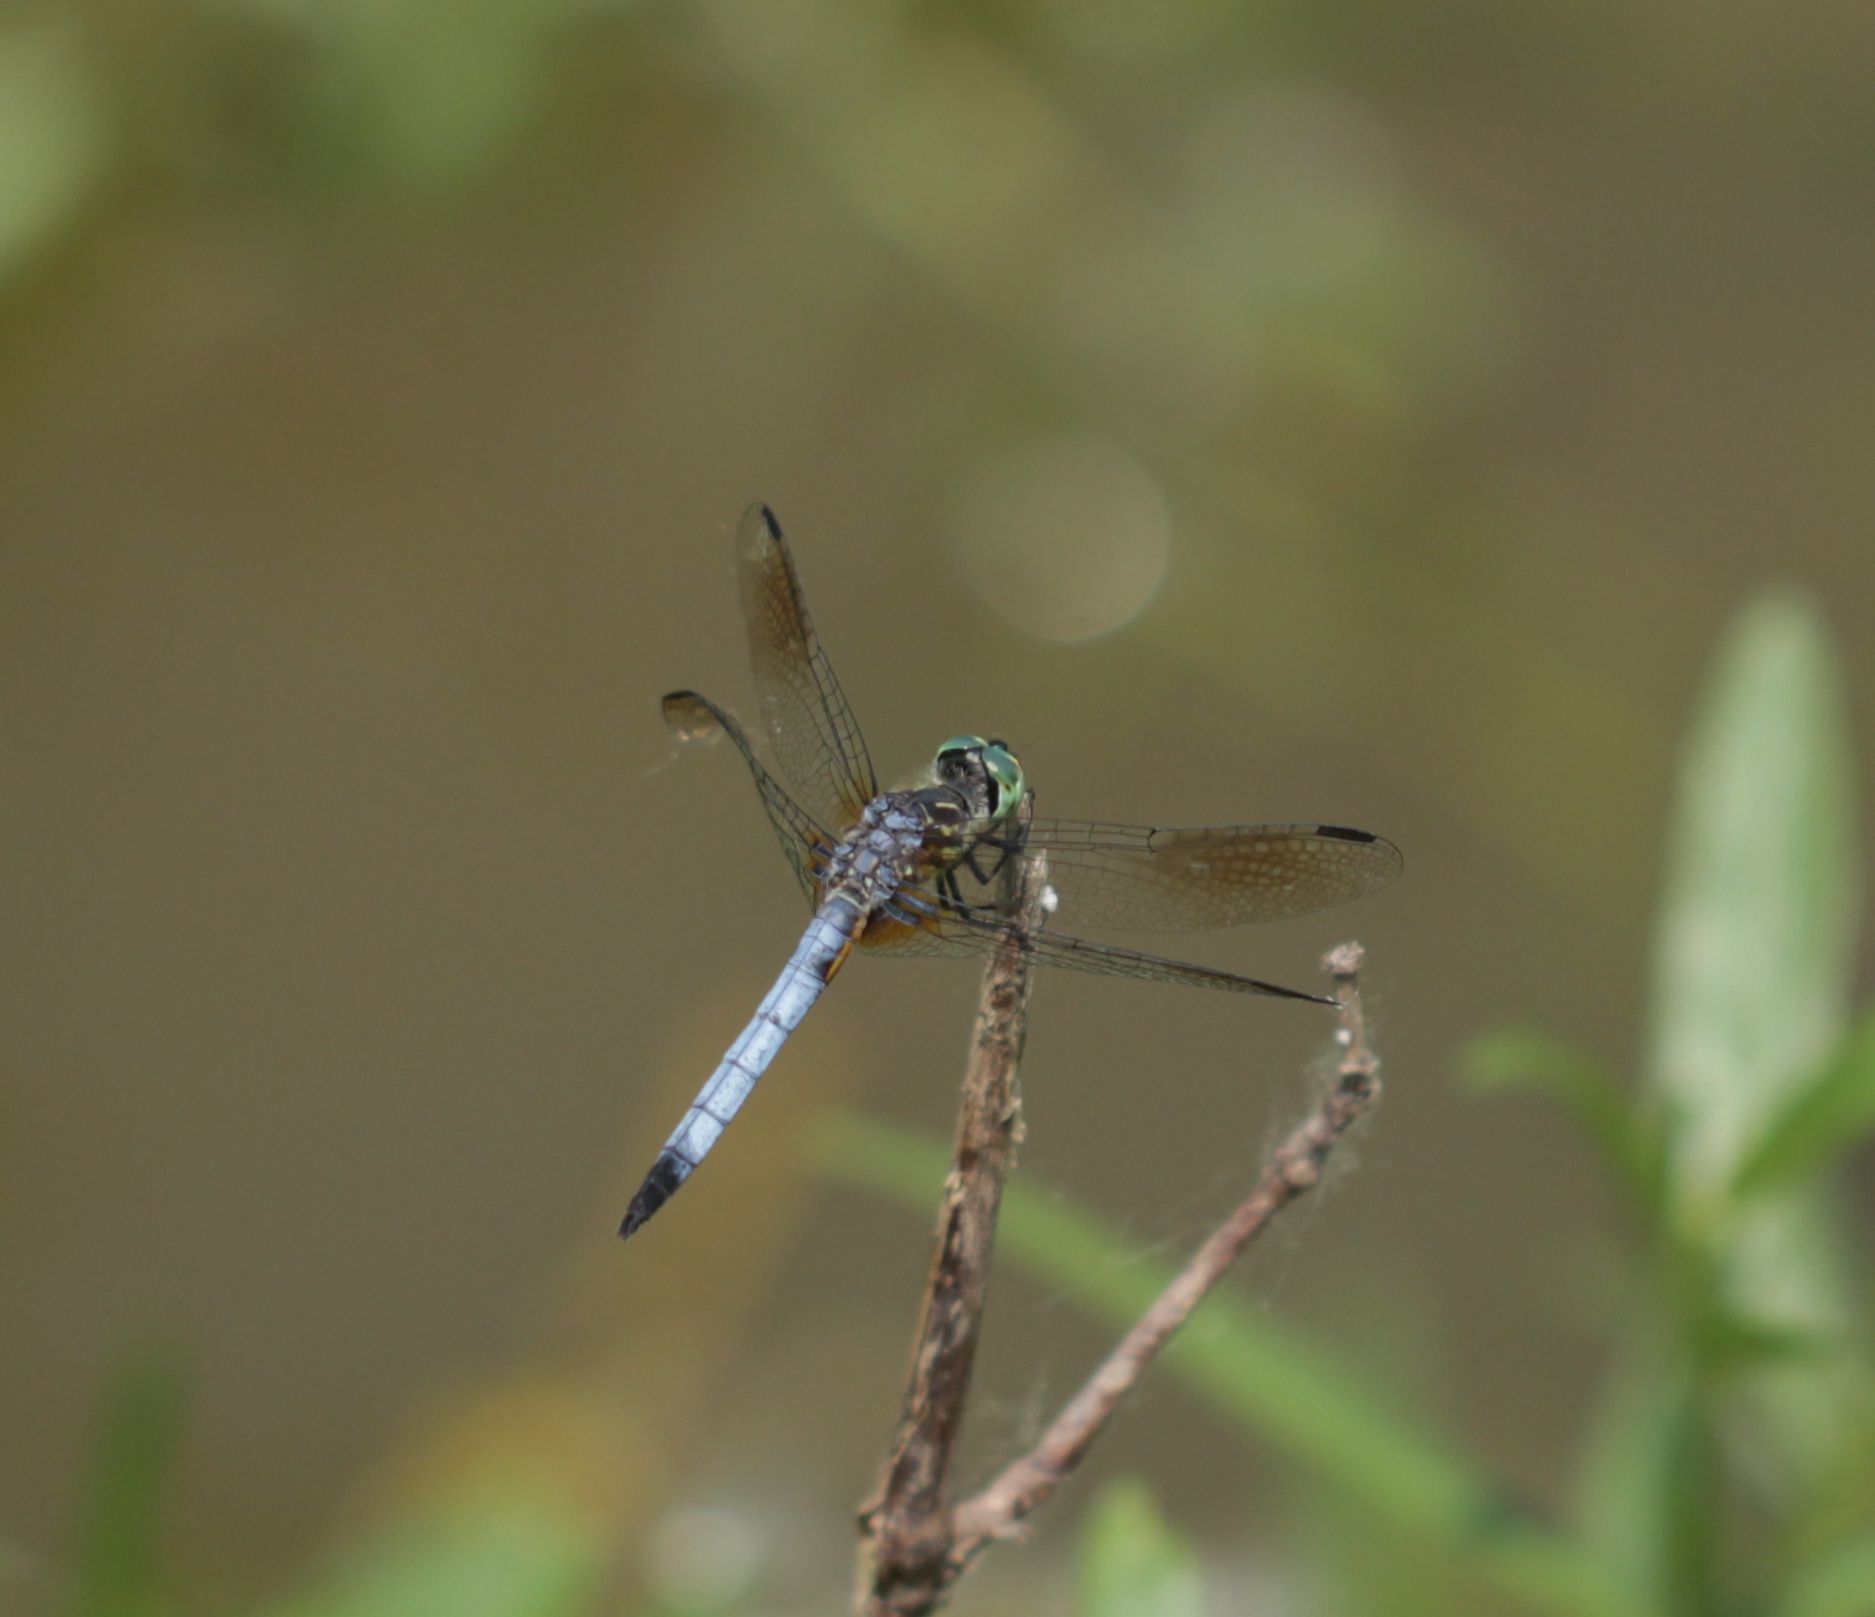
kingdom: Animalia
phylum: Arthropoda
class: Insecta
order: Odonata
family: Libellulidae
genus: Pachydiplax
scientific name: Pachydiplax longipennis
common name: Blue dasher
